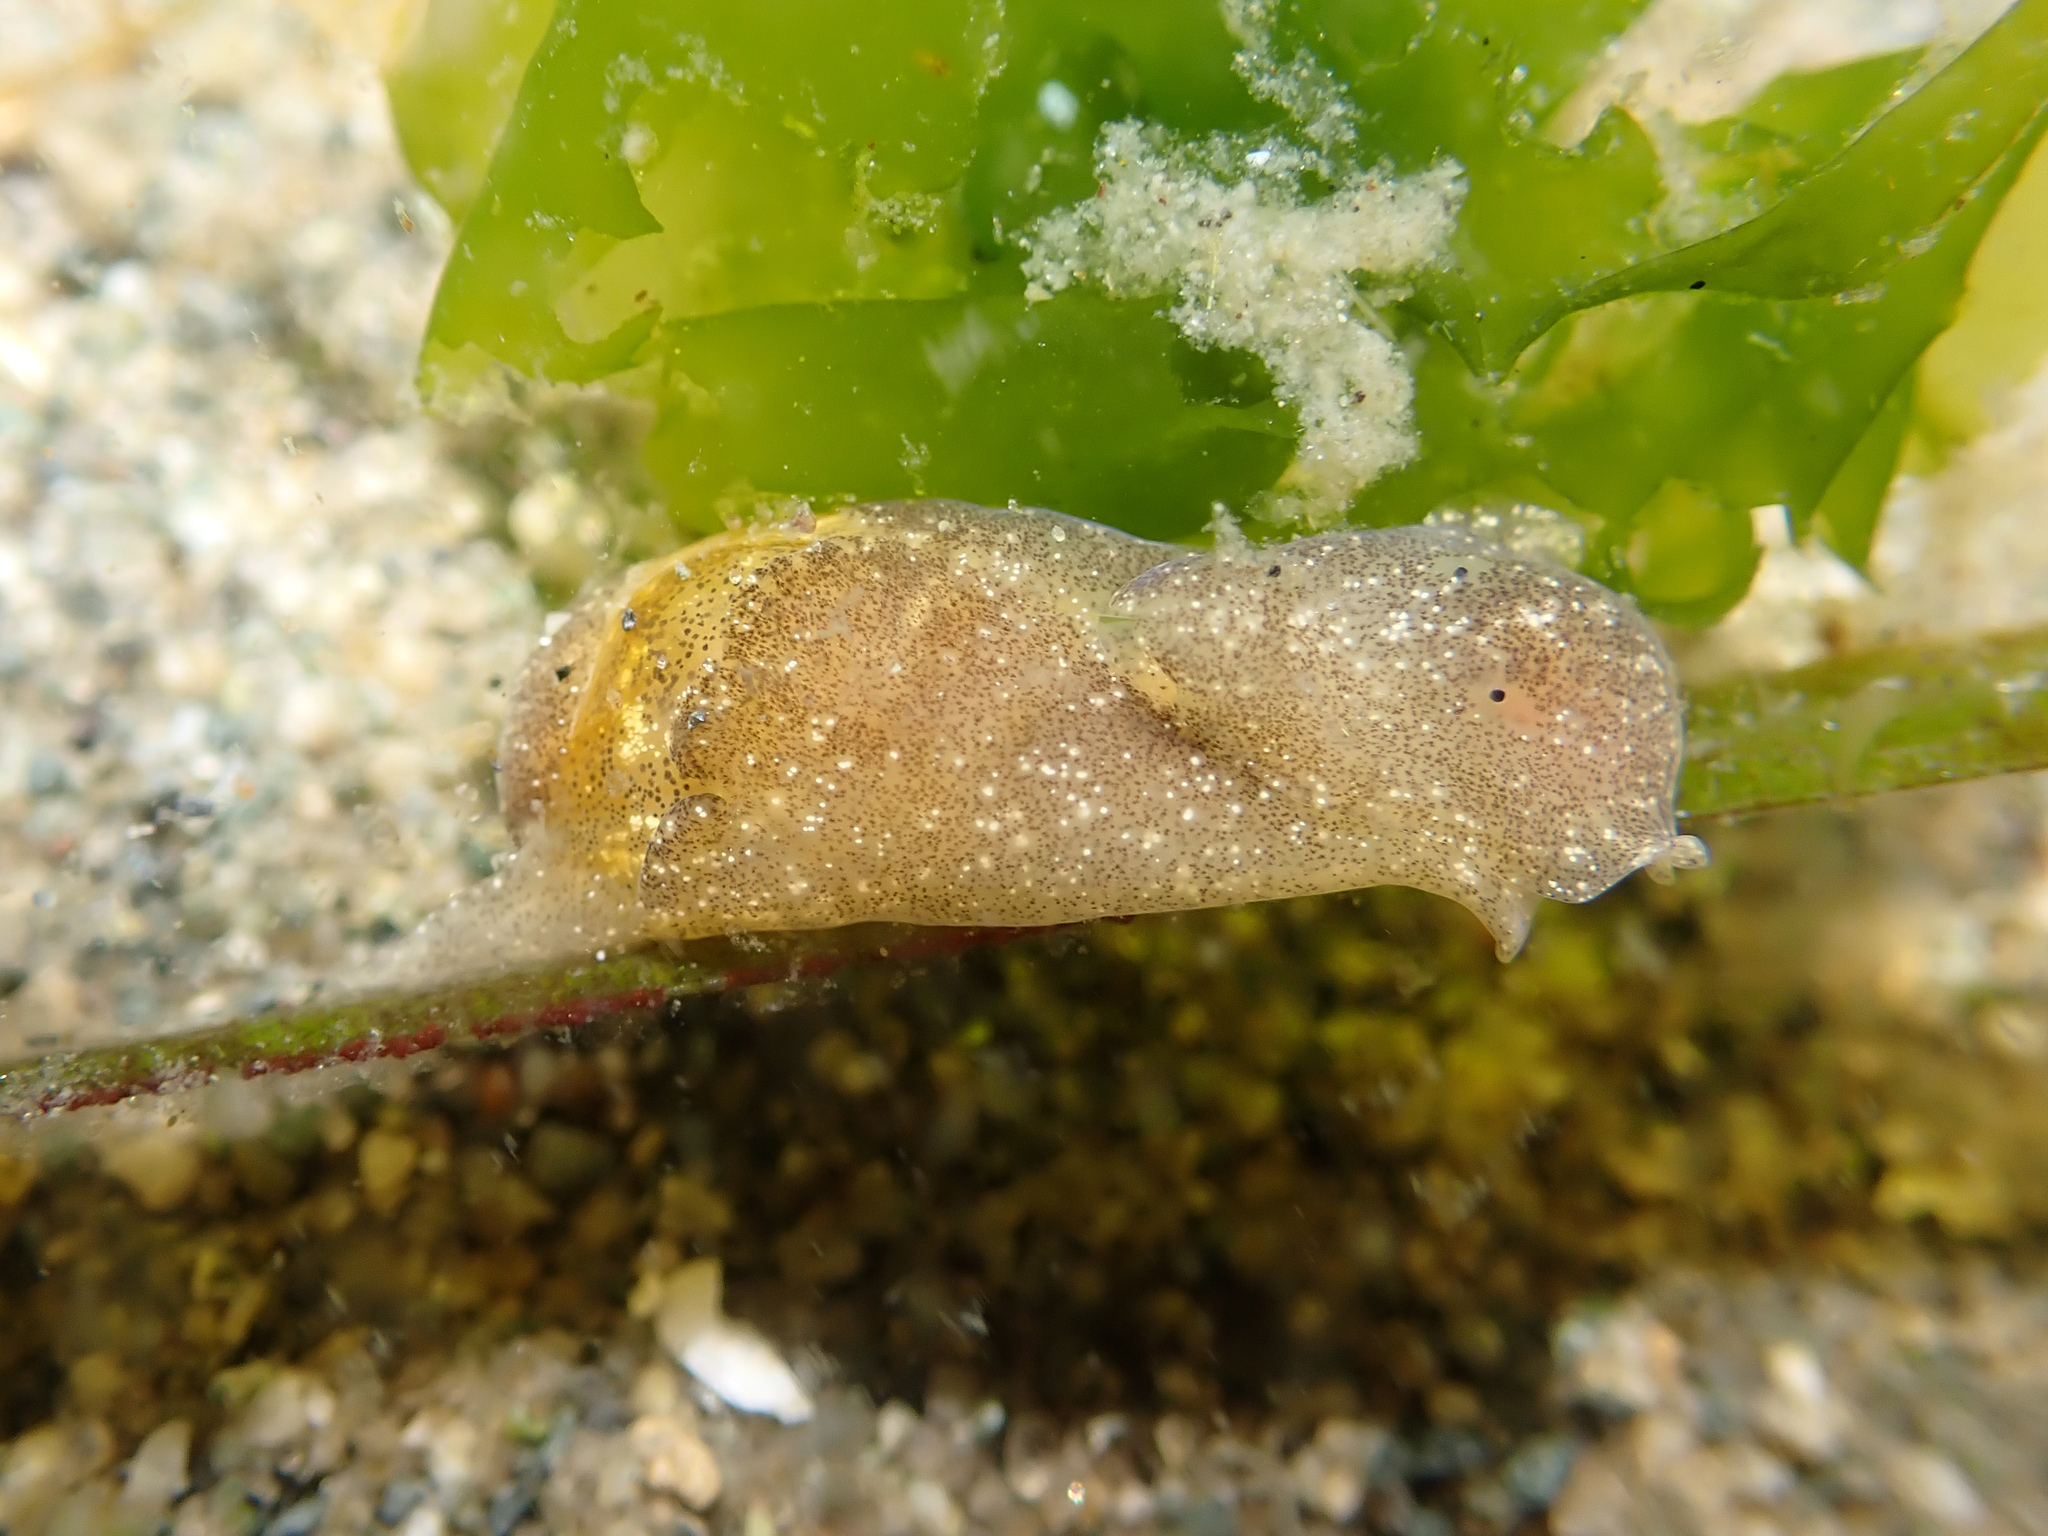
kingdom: Animalia
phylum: Mollusca
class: Gastropoda
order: Cephalaspidea
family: Haminoeidae
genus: Haminoea
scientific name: Haminoea vesicula
